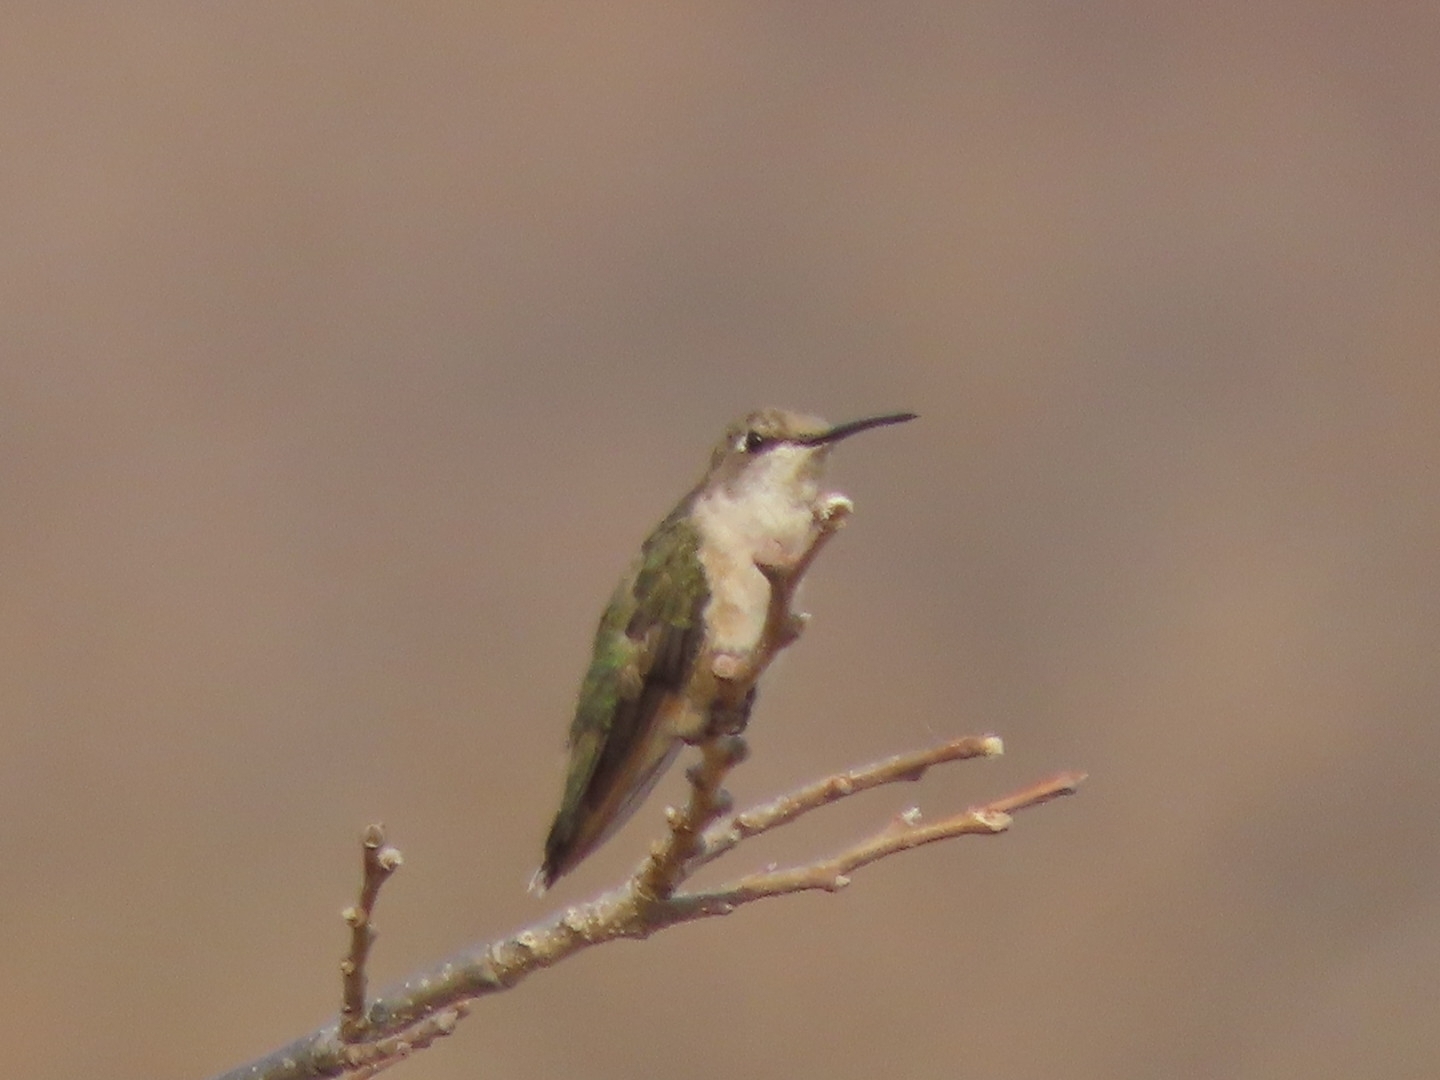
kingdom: Animalia
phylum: Chordata
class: Aves
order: Apodiformes
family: Trochilidae
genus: Archilochus
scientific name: Archilochus colubris
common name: Ruby-throated hummingbird
